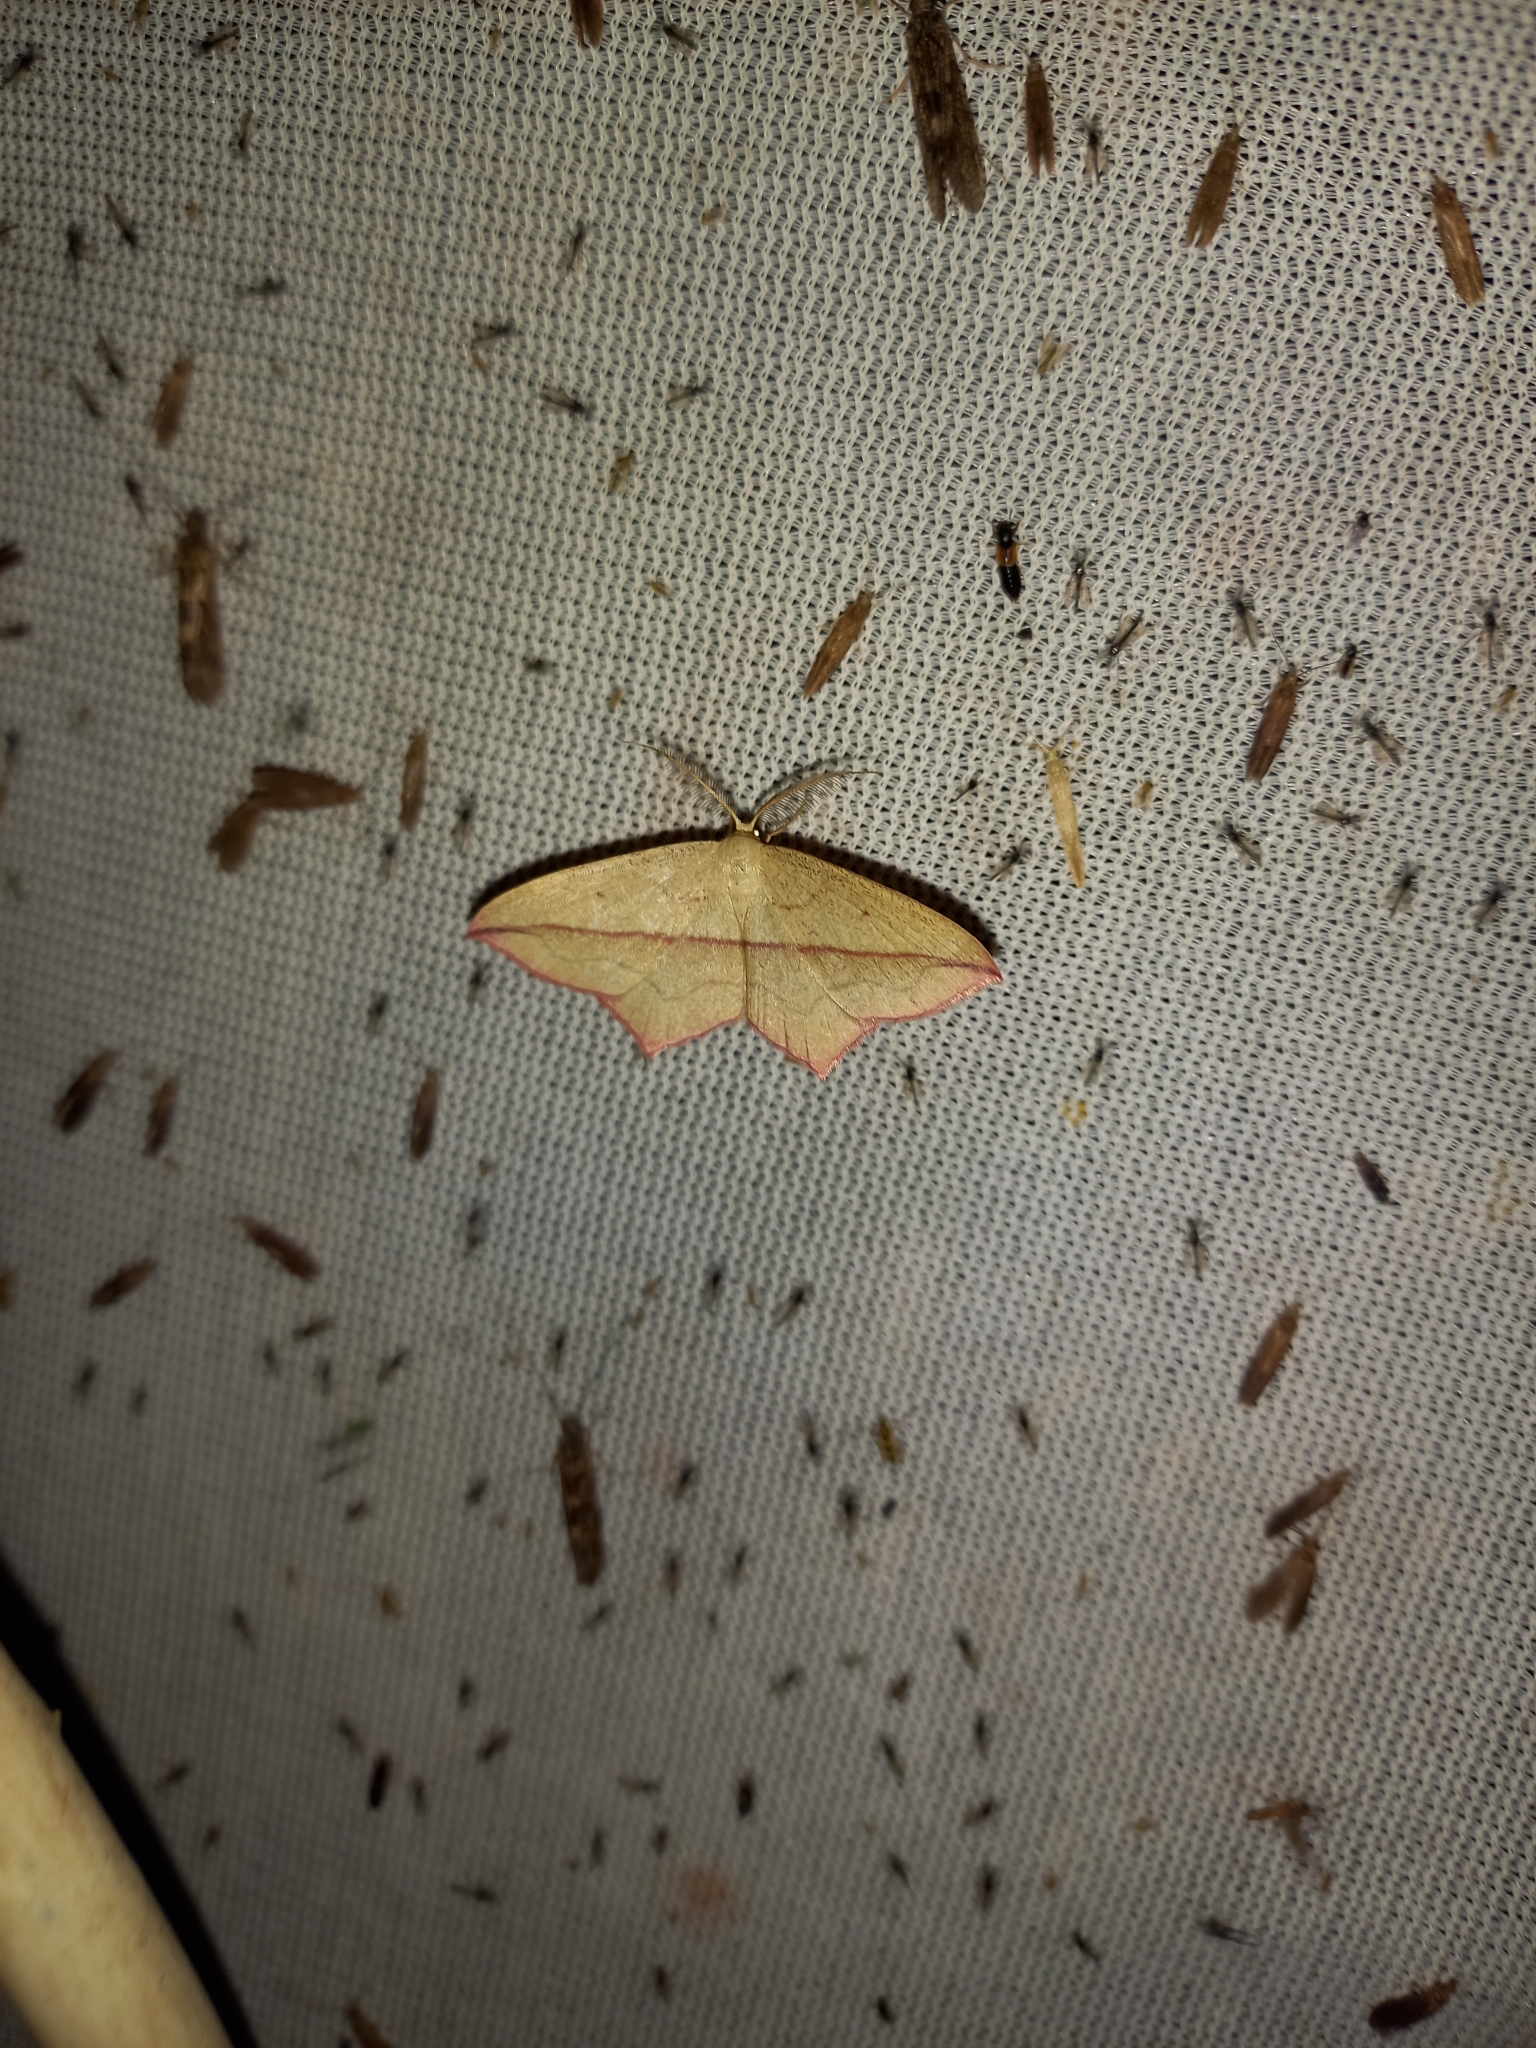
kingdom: Animalia
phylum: Arthropoda
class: Insecta
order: Lepidoptera
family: Geometridae
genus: Timandra
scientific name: Timandra comae
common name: Blood-vein
